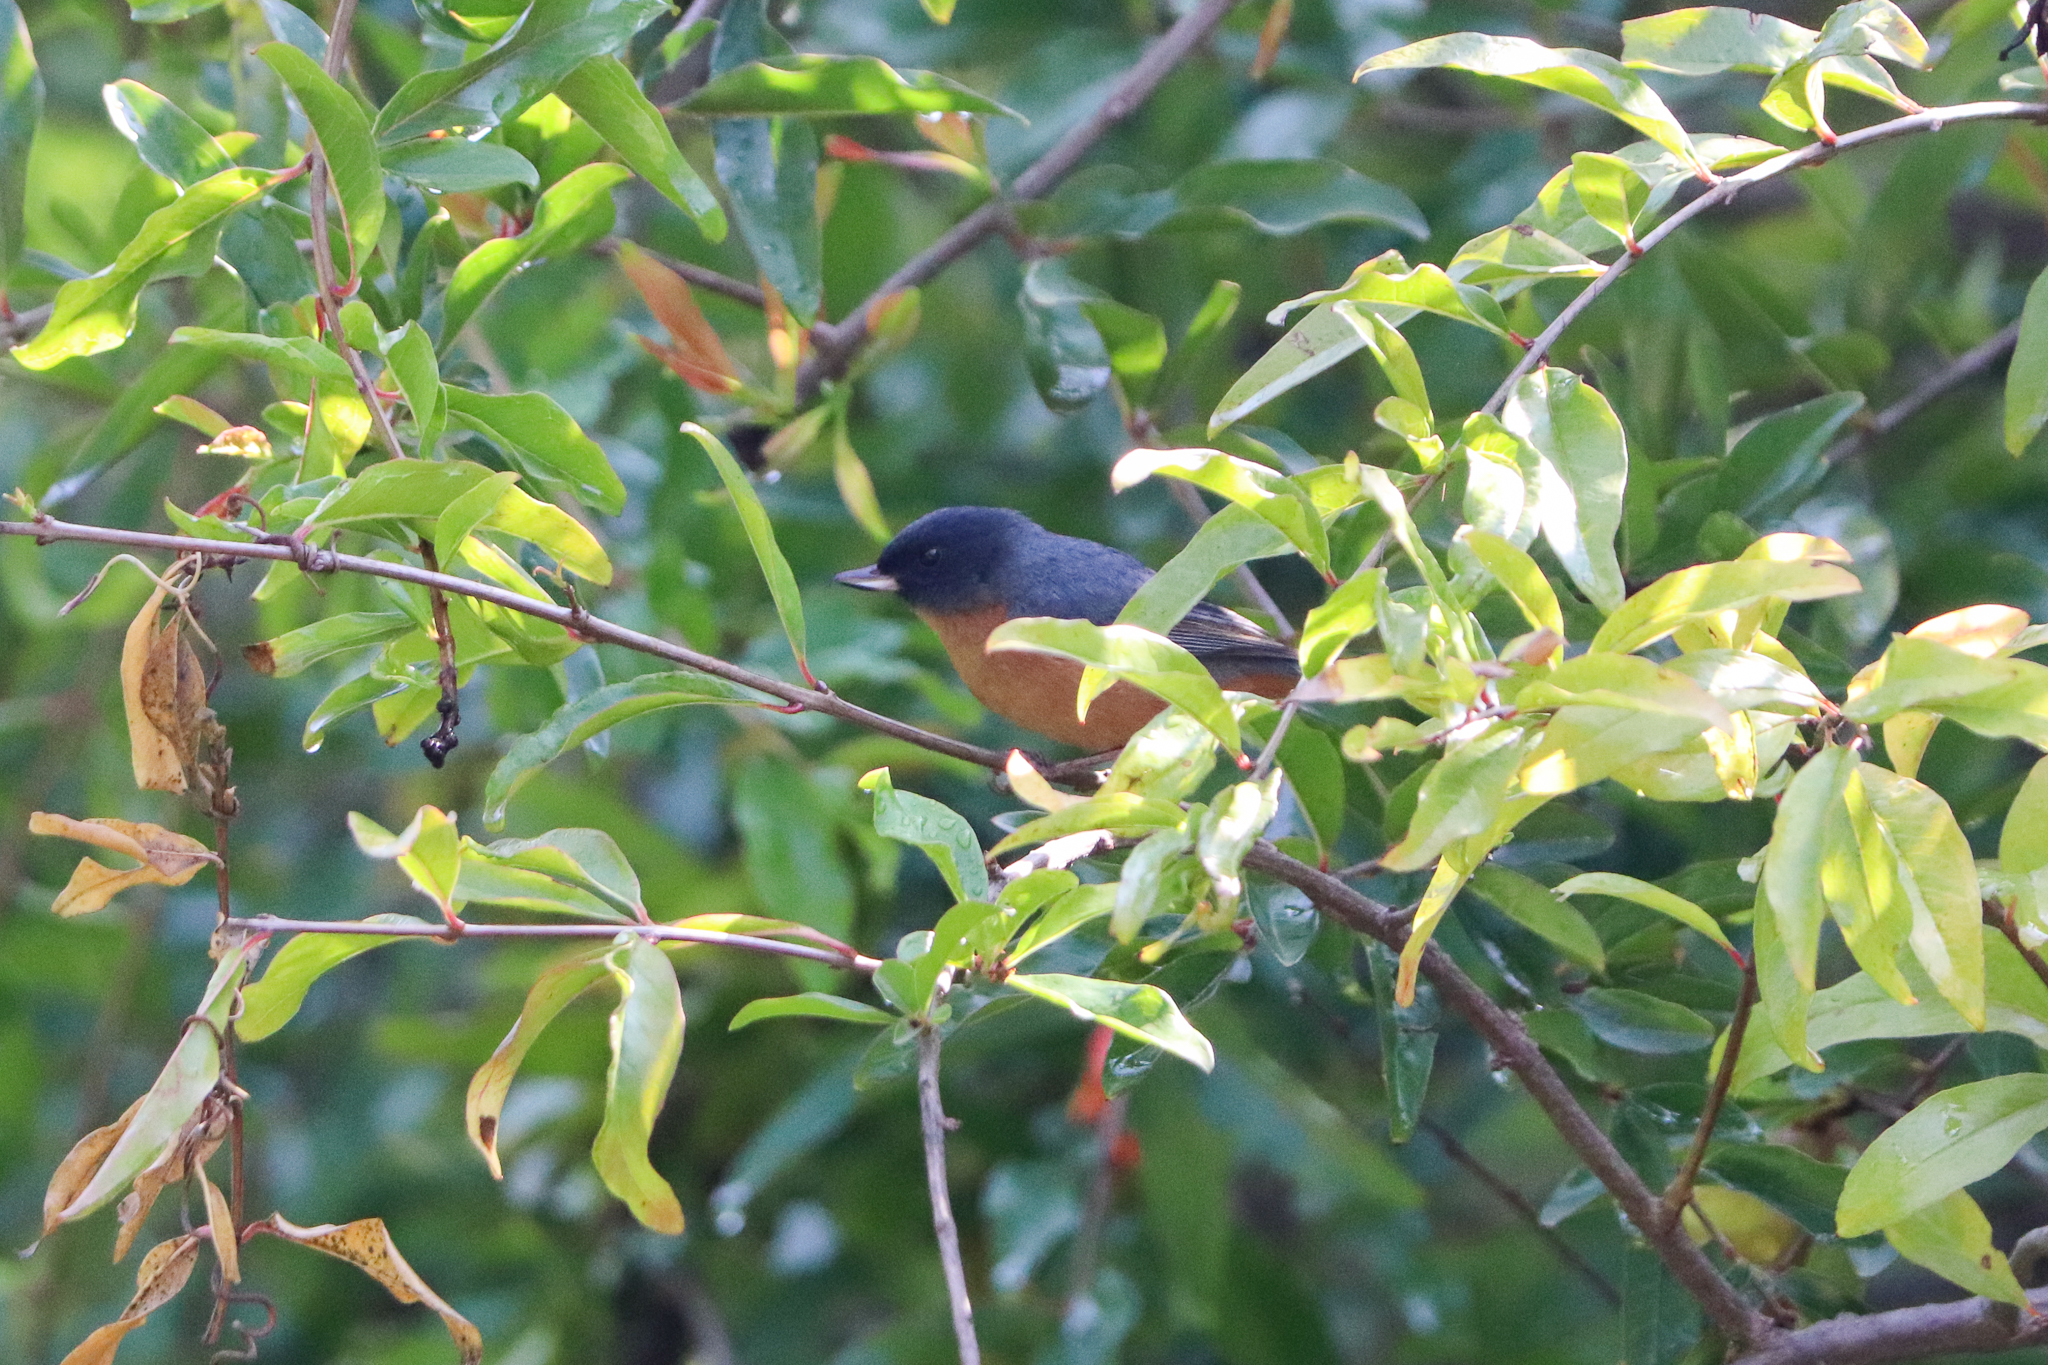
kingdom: Animalia
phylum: Chordata
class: Aves
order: Passeriformes
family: Thraupidae
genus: Diglossa
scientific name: Diglossa baritula
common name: Cinnamon-bellied flowerpiercer
